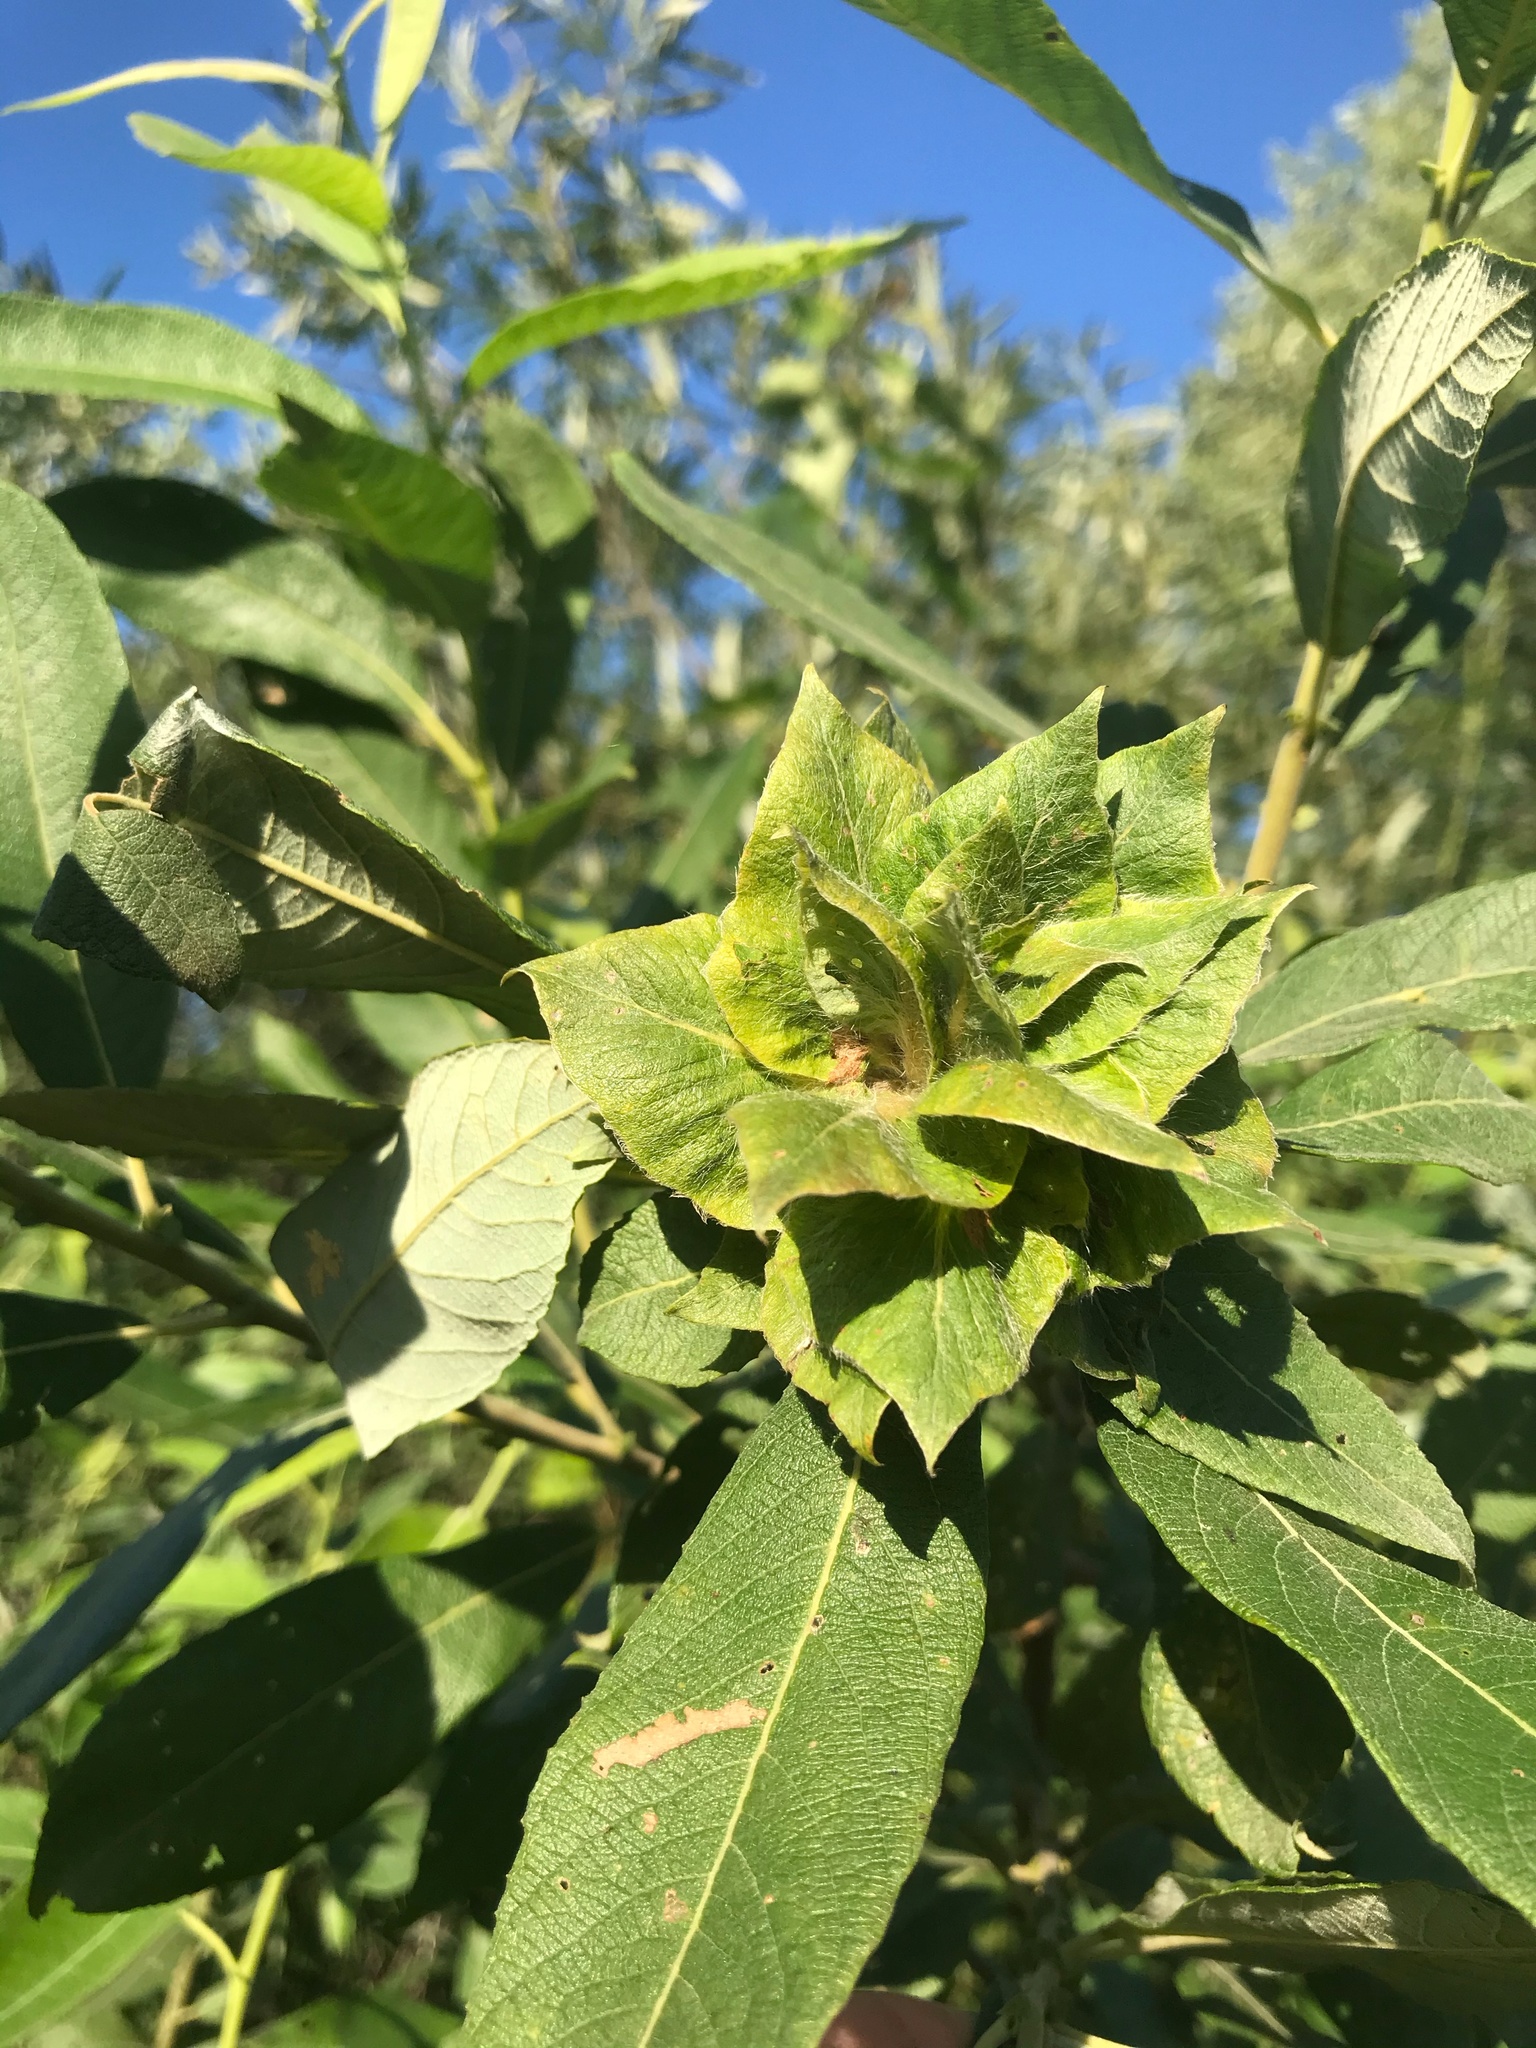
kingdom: Animalia
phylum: Arthropoda
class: Insecta
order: Diptera
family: Cecidomyiidae
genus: Rabdophaga
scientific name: Rabdophaga rosaria
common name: Willow rose gall midge
